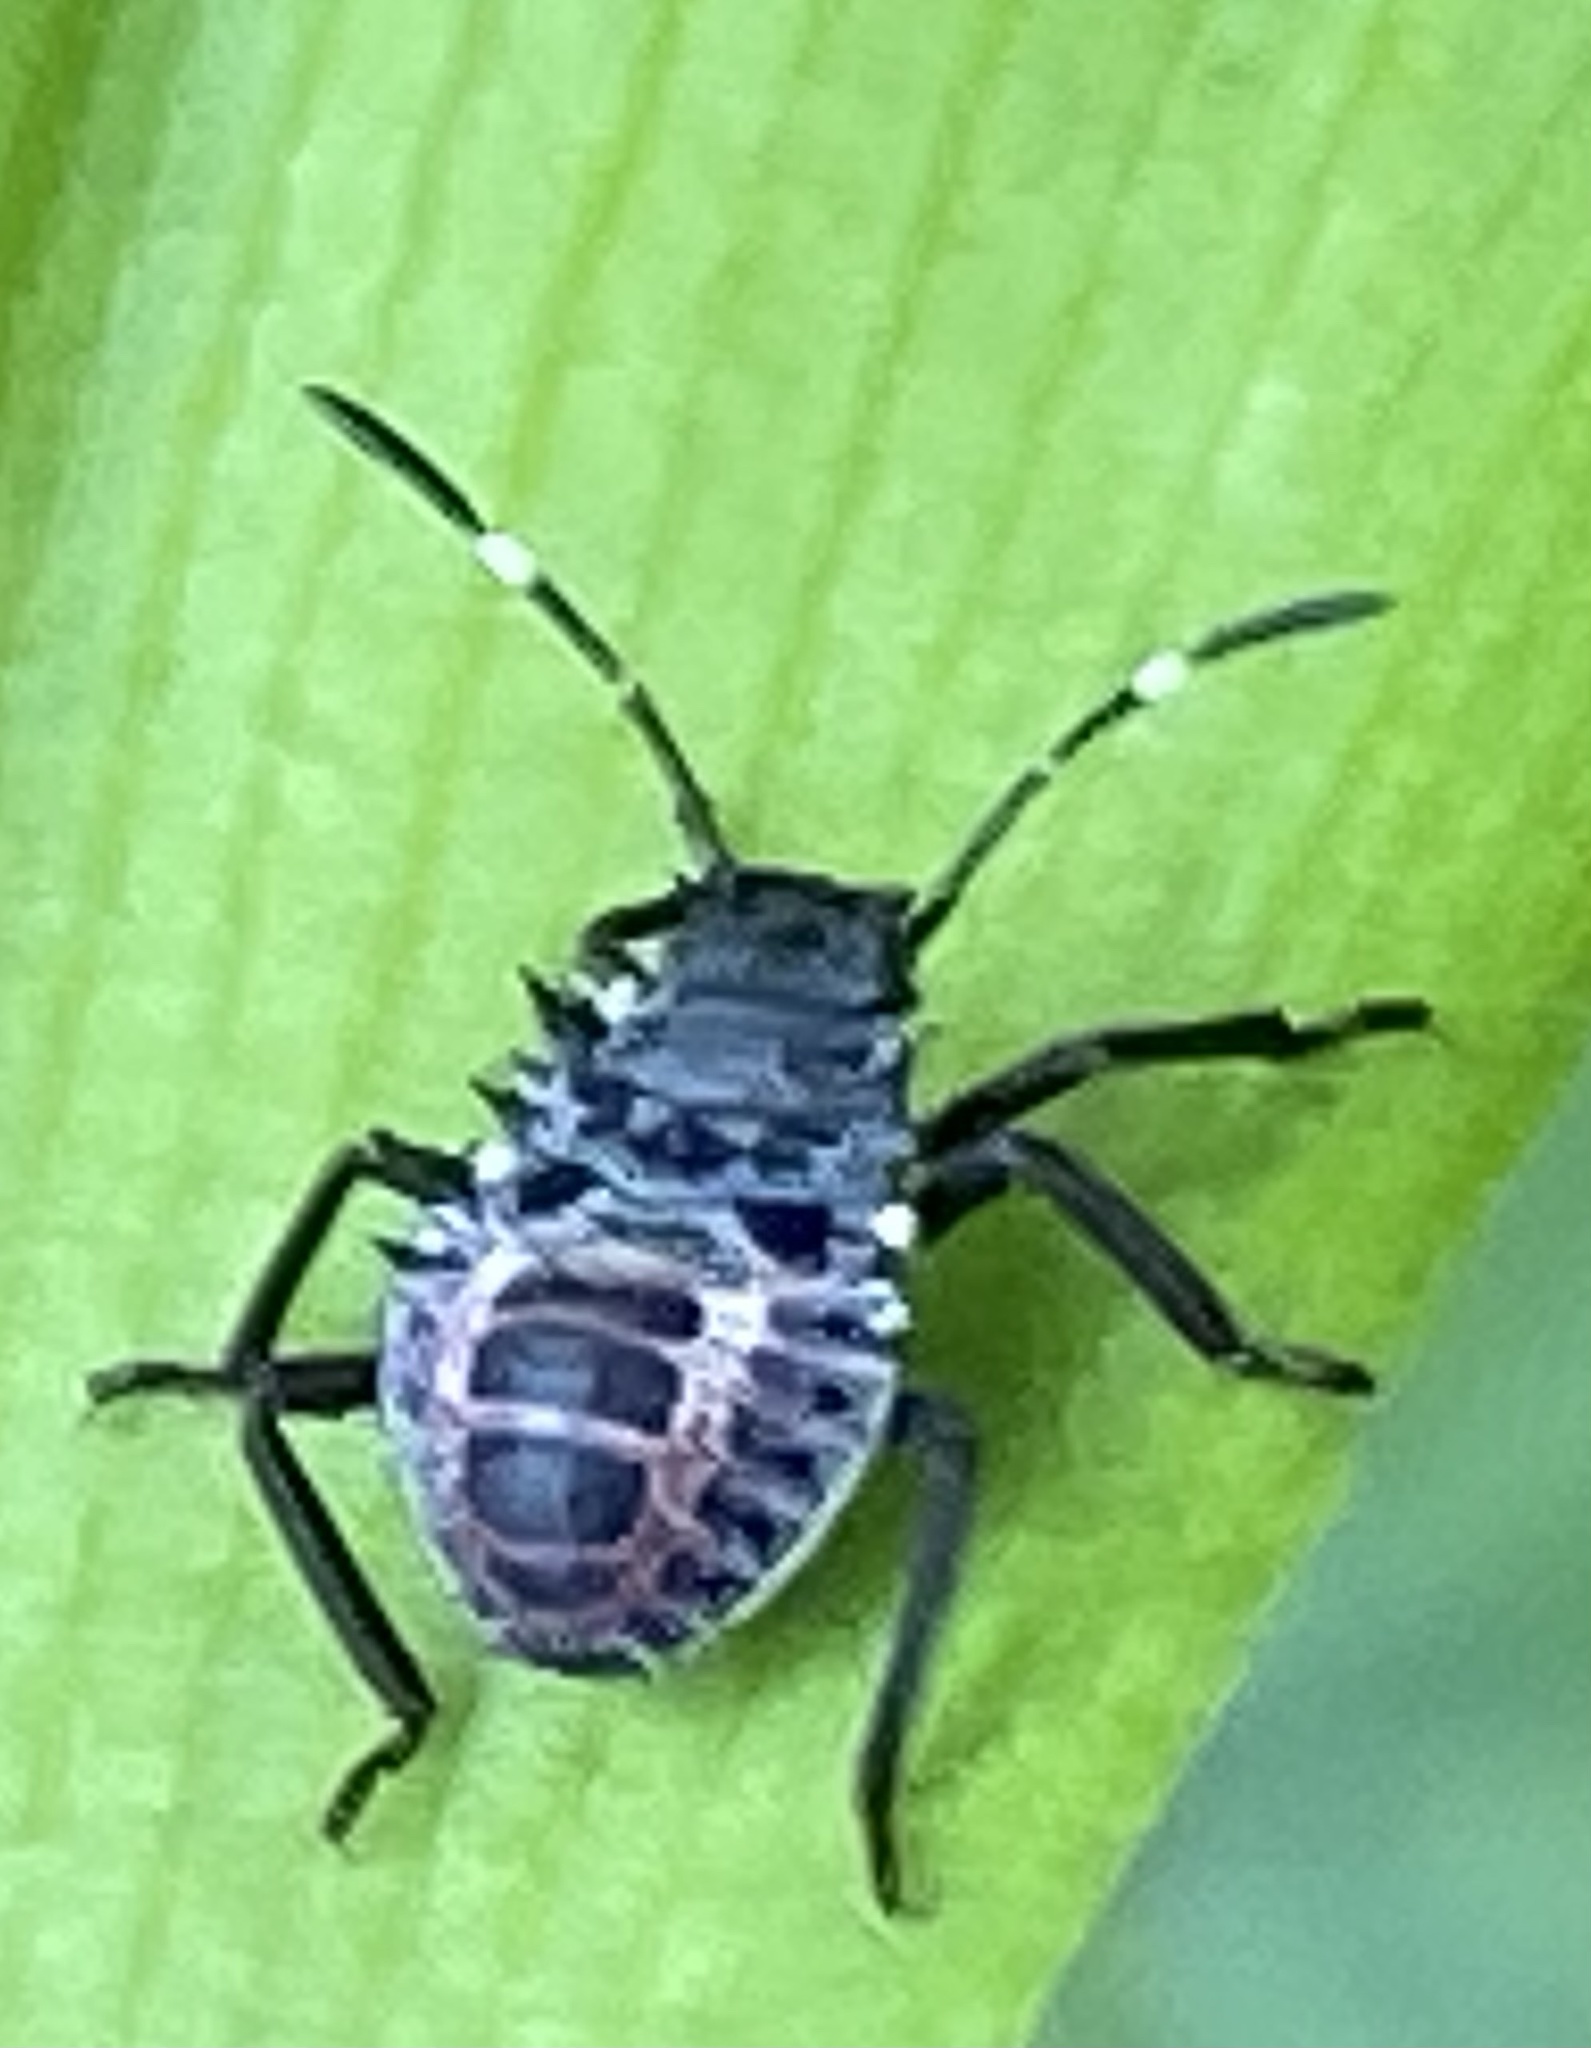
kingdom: Animalia
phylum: Arthropoda
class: Insecta
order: Hemiptera
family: Pentatomidae
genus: Halyomorpha
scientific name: Halyomorpha halys
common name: Brown marmorated stink bug
